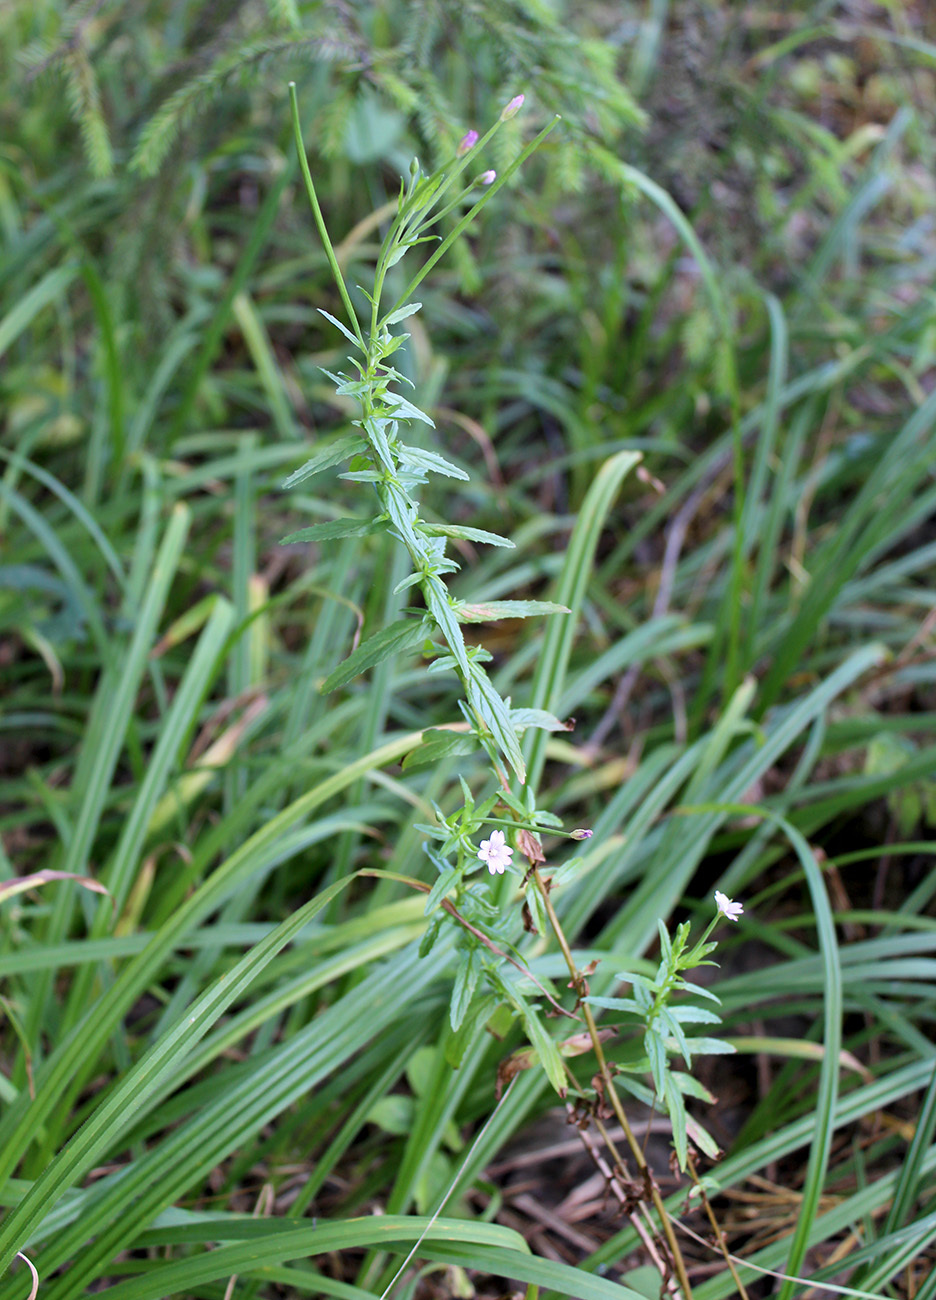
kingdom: Plantae
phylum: Tracheophyta
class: Magnoliopsida
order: Myrtales
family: Onagraceae
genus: Epilobium
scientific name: Epilobium tetragonum
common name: Square-stemmed willowherb
